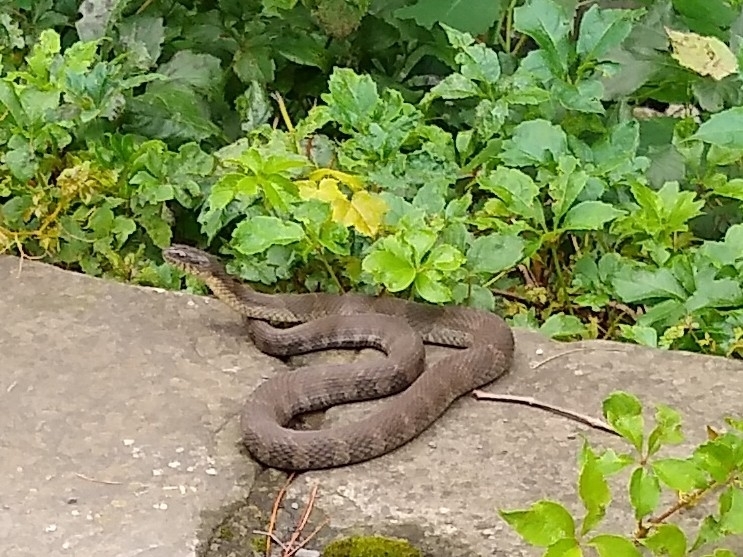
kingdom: Animalia
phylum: Chordata
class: Squamata
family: Colubridae
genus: Nerodia
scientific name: Nerodia sipedon
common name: Northern water snake
